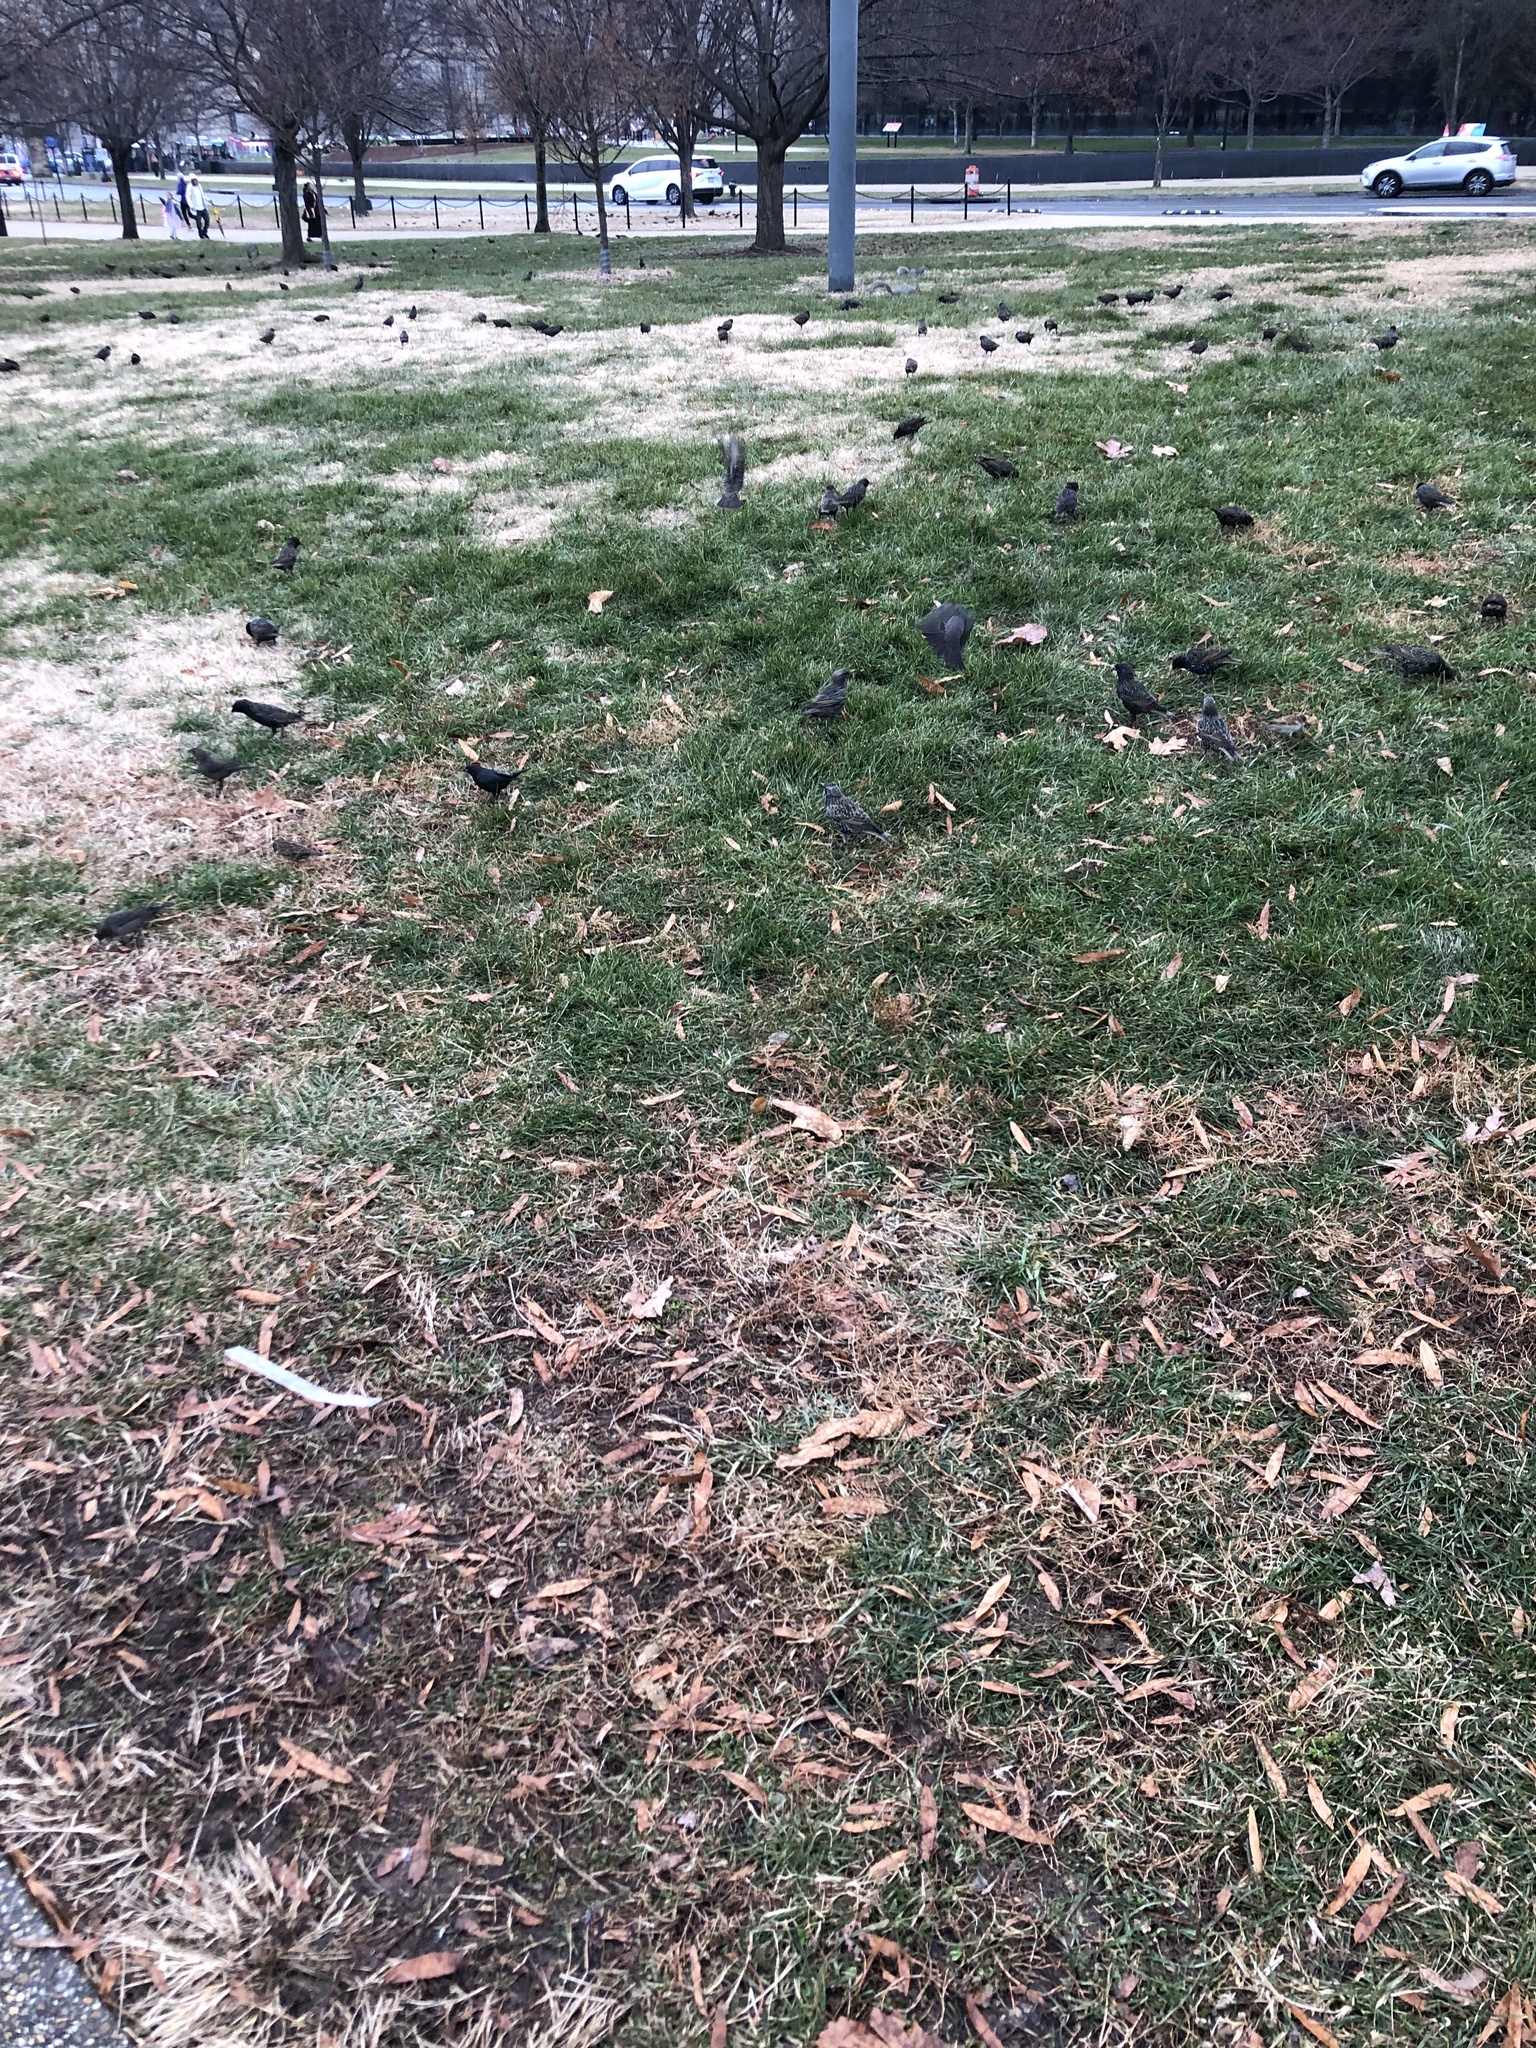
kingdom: Animalia
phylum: Chordata
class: Aves
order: Passeriformes
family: Sturnidae
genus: Sturnus
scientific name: Sturnus vulgaris
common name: Common starling
